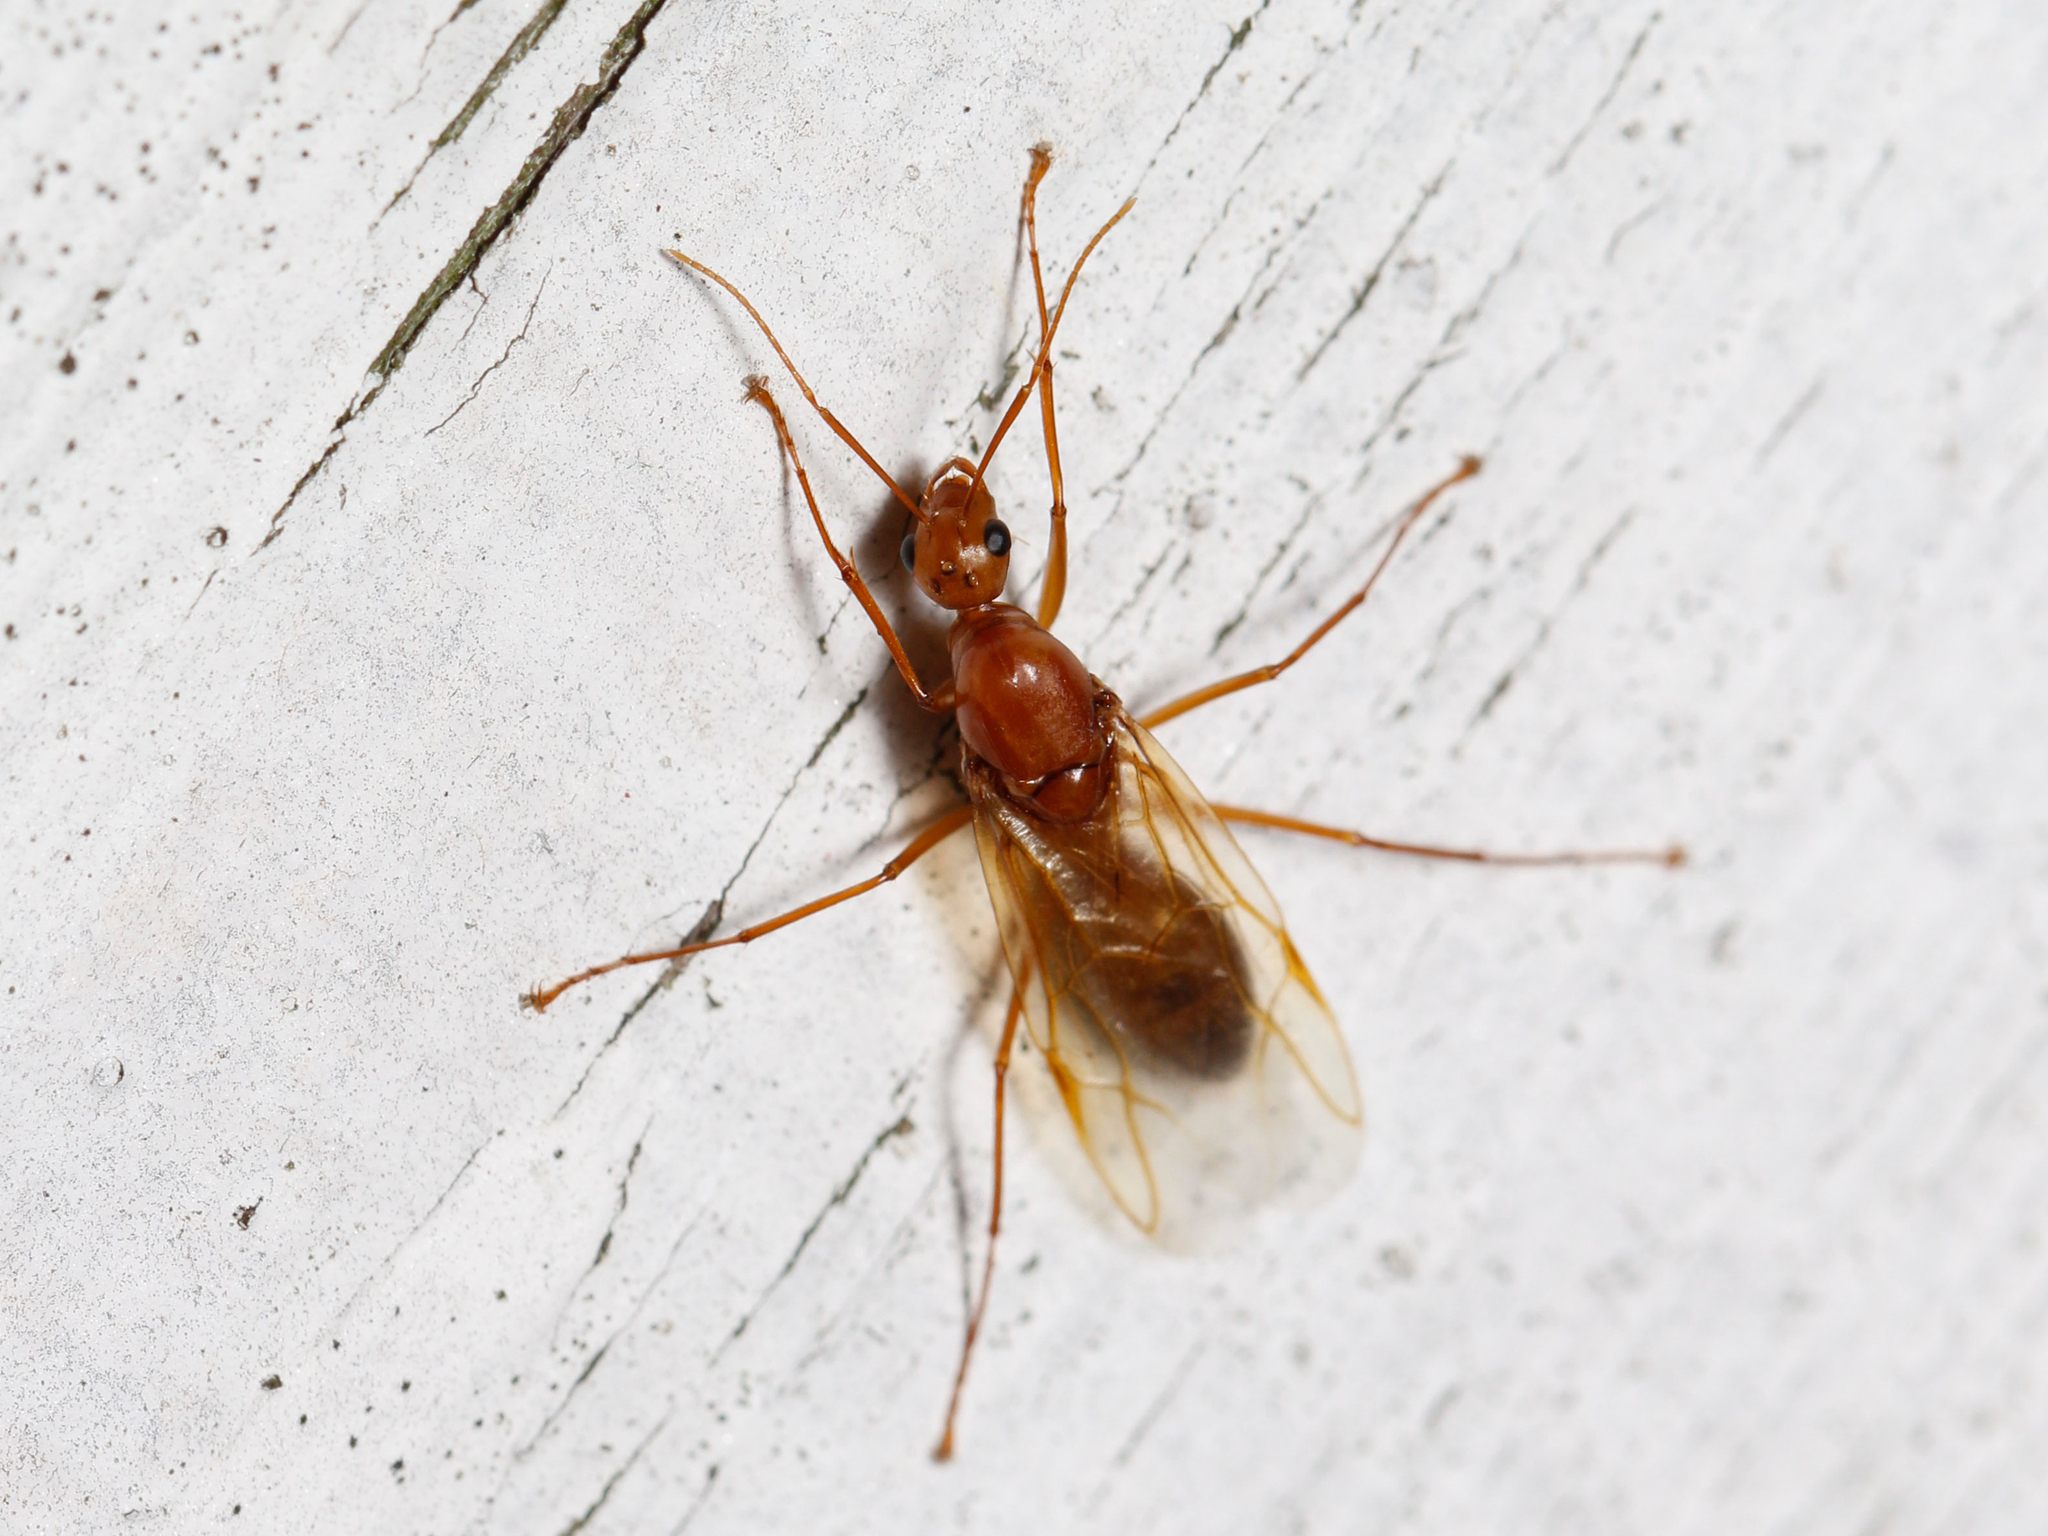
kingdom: Animalia
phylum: Arthropoda
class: Insecta
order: Hymenoptera
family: Formicidae
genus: Camponotus
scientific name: Camponotus castaneus
